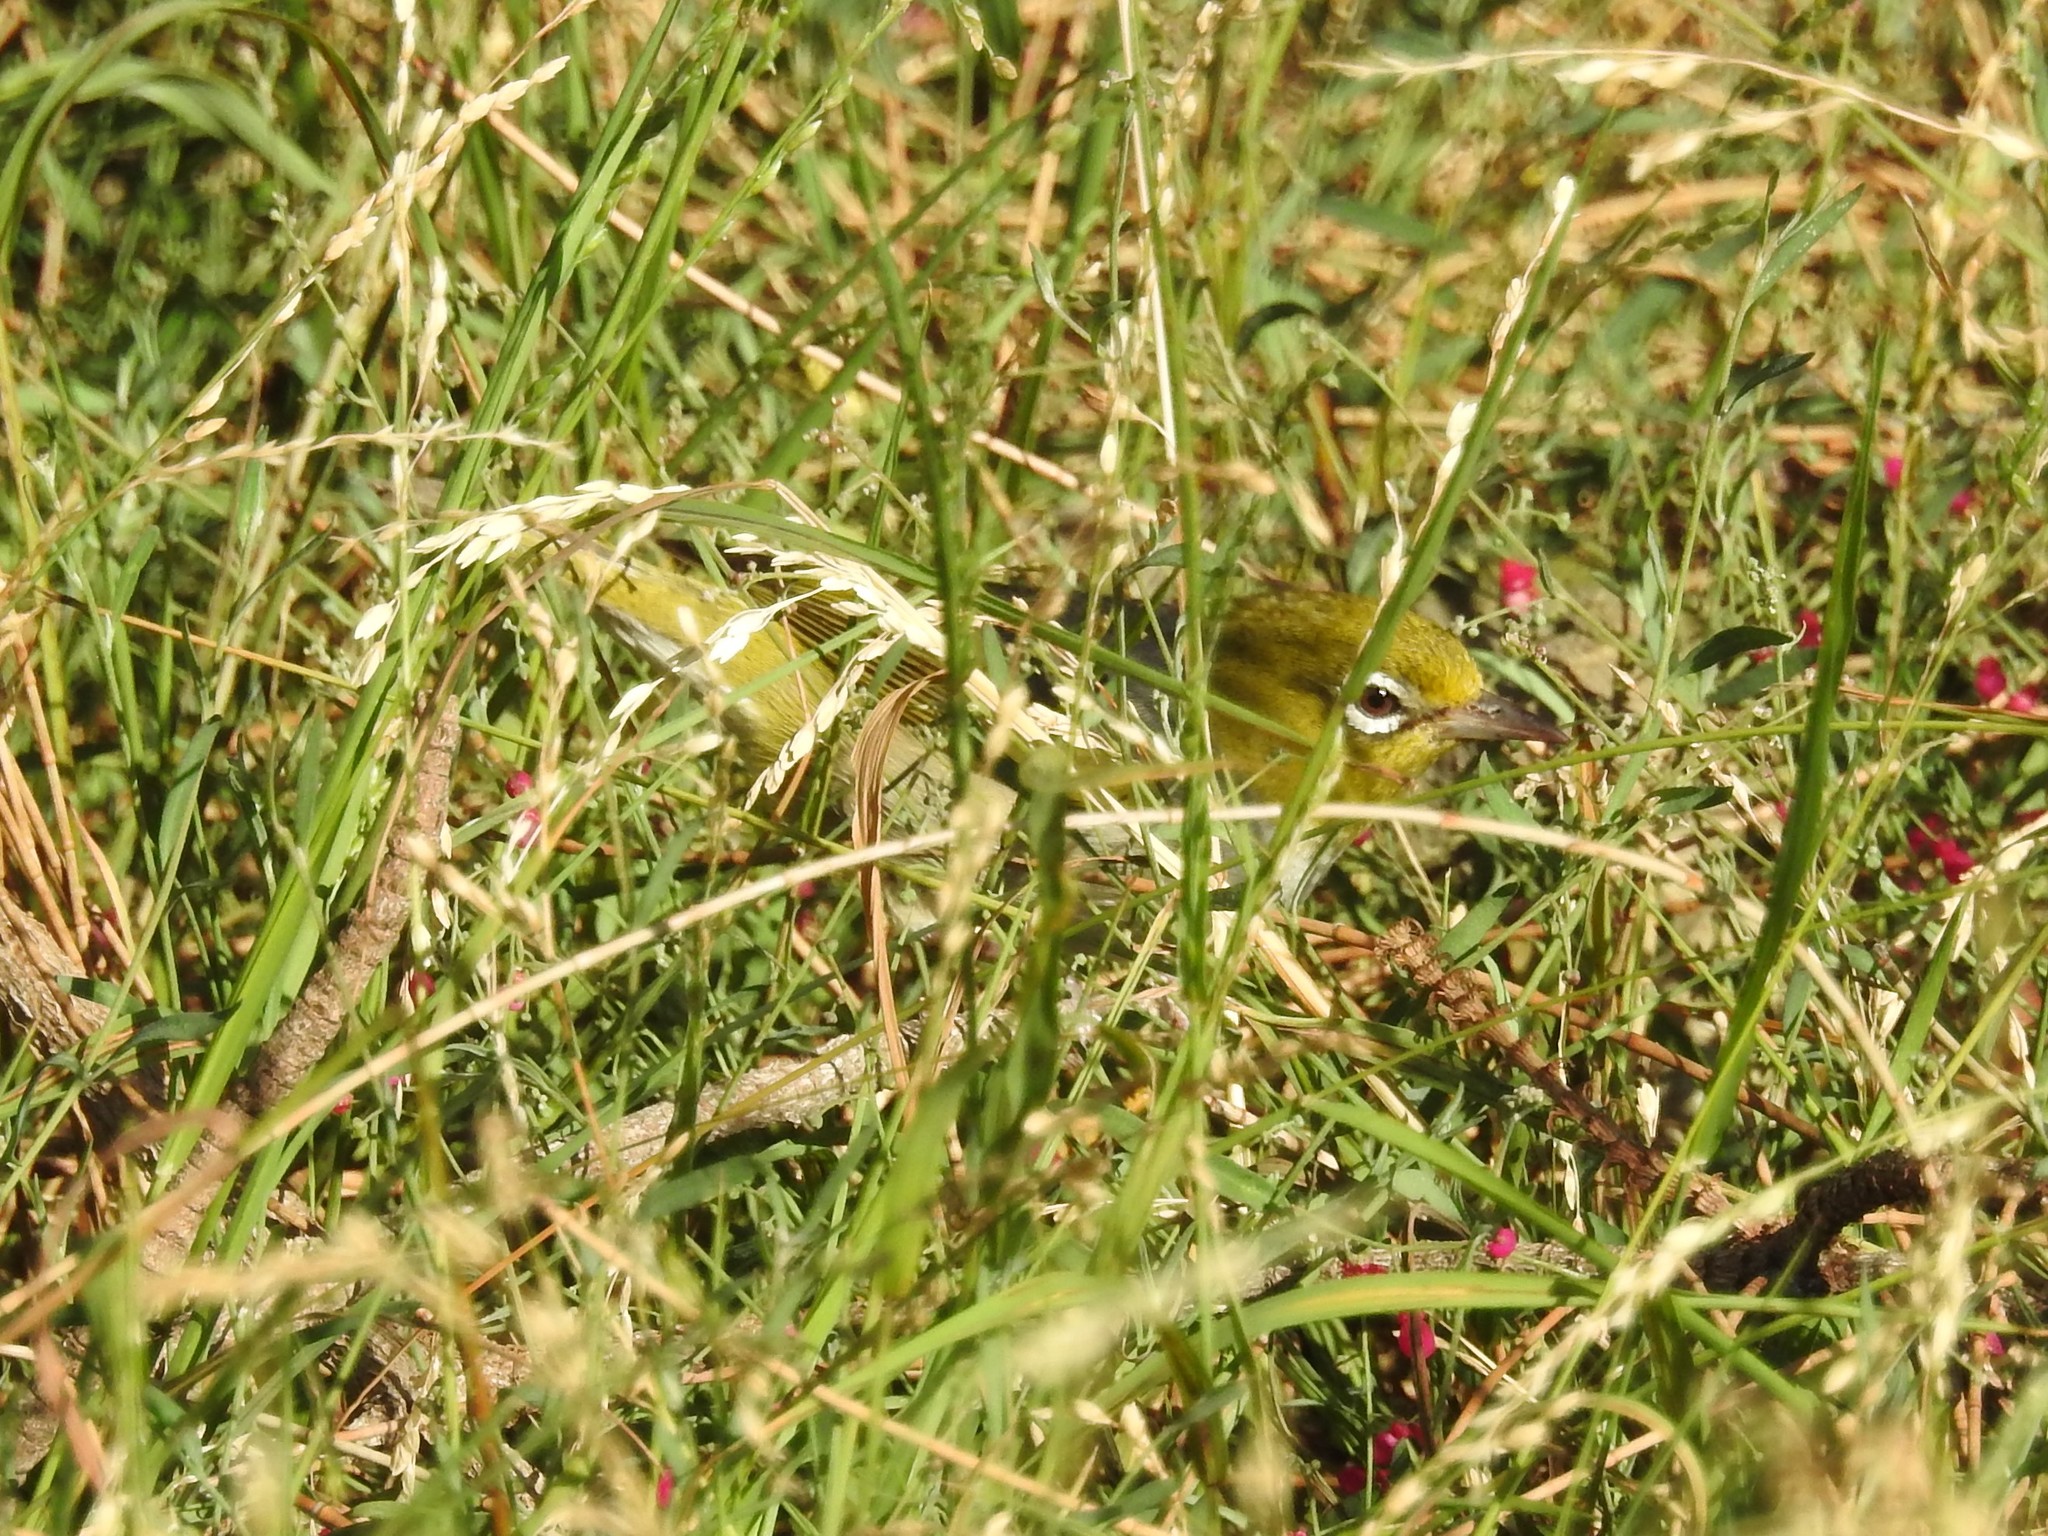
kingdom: Animalia
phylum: Chordata
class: Aves
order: Passeriformes
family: Zosteropidae
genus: Zosterops
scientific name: Zosterops lateralis
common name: Silvereye
